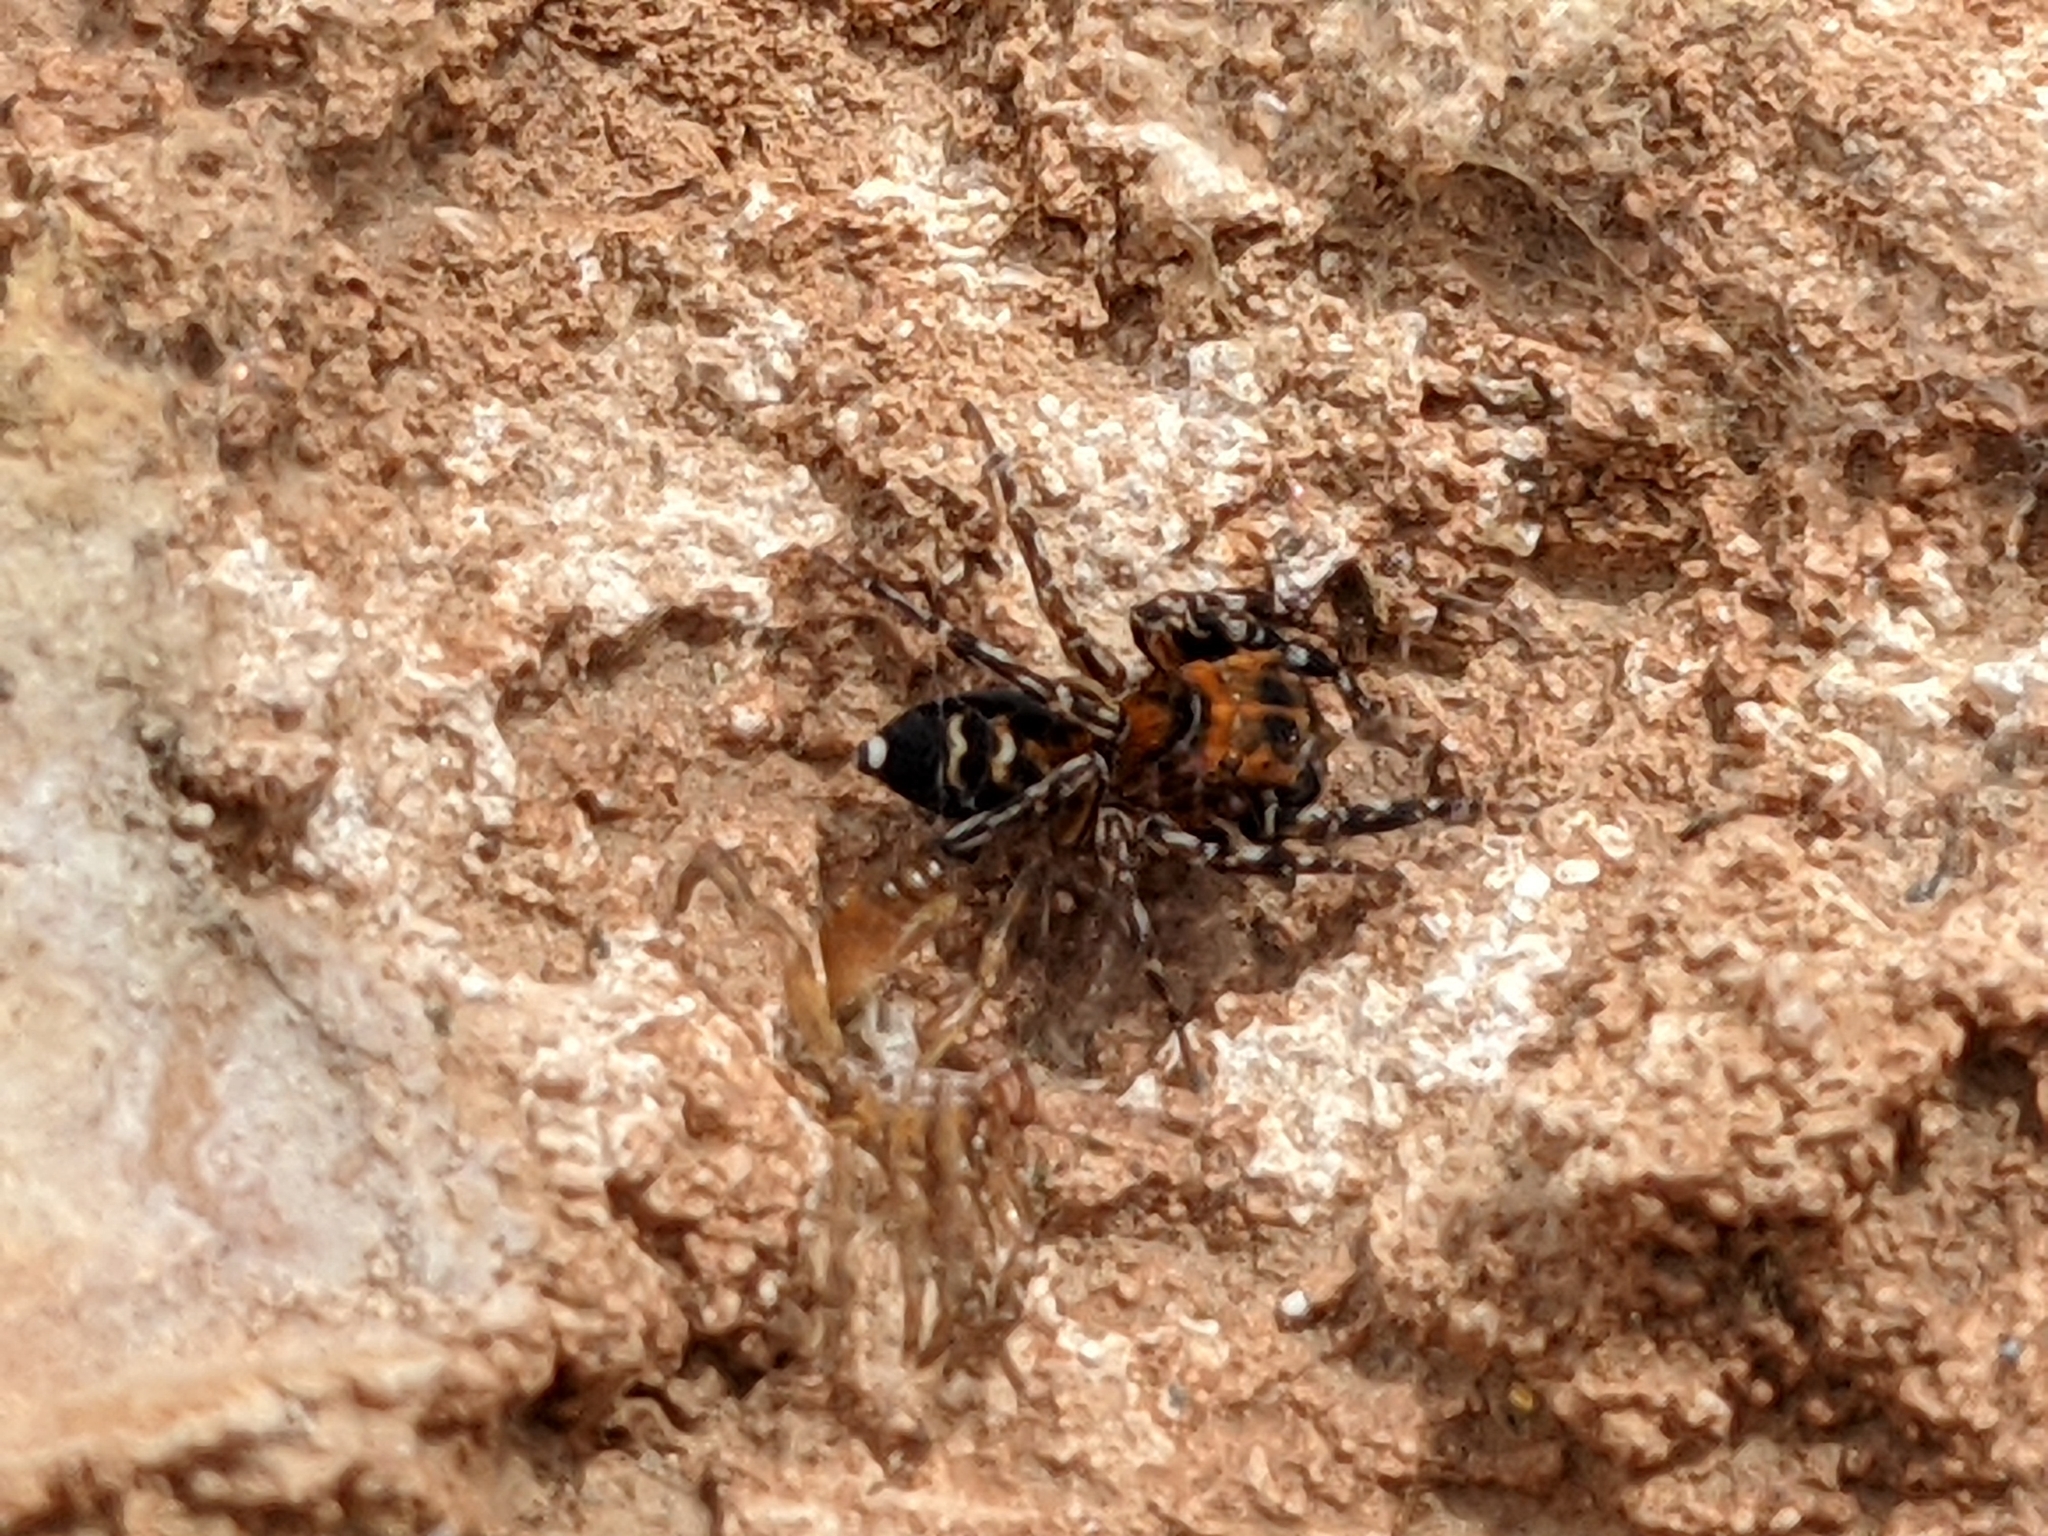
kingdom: Animalia
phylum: Arthropoda
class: Arachnida
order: Araneae
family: Salticidae
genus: Cyrba
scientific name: Cyrba algerina
